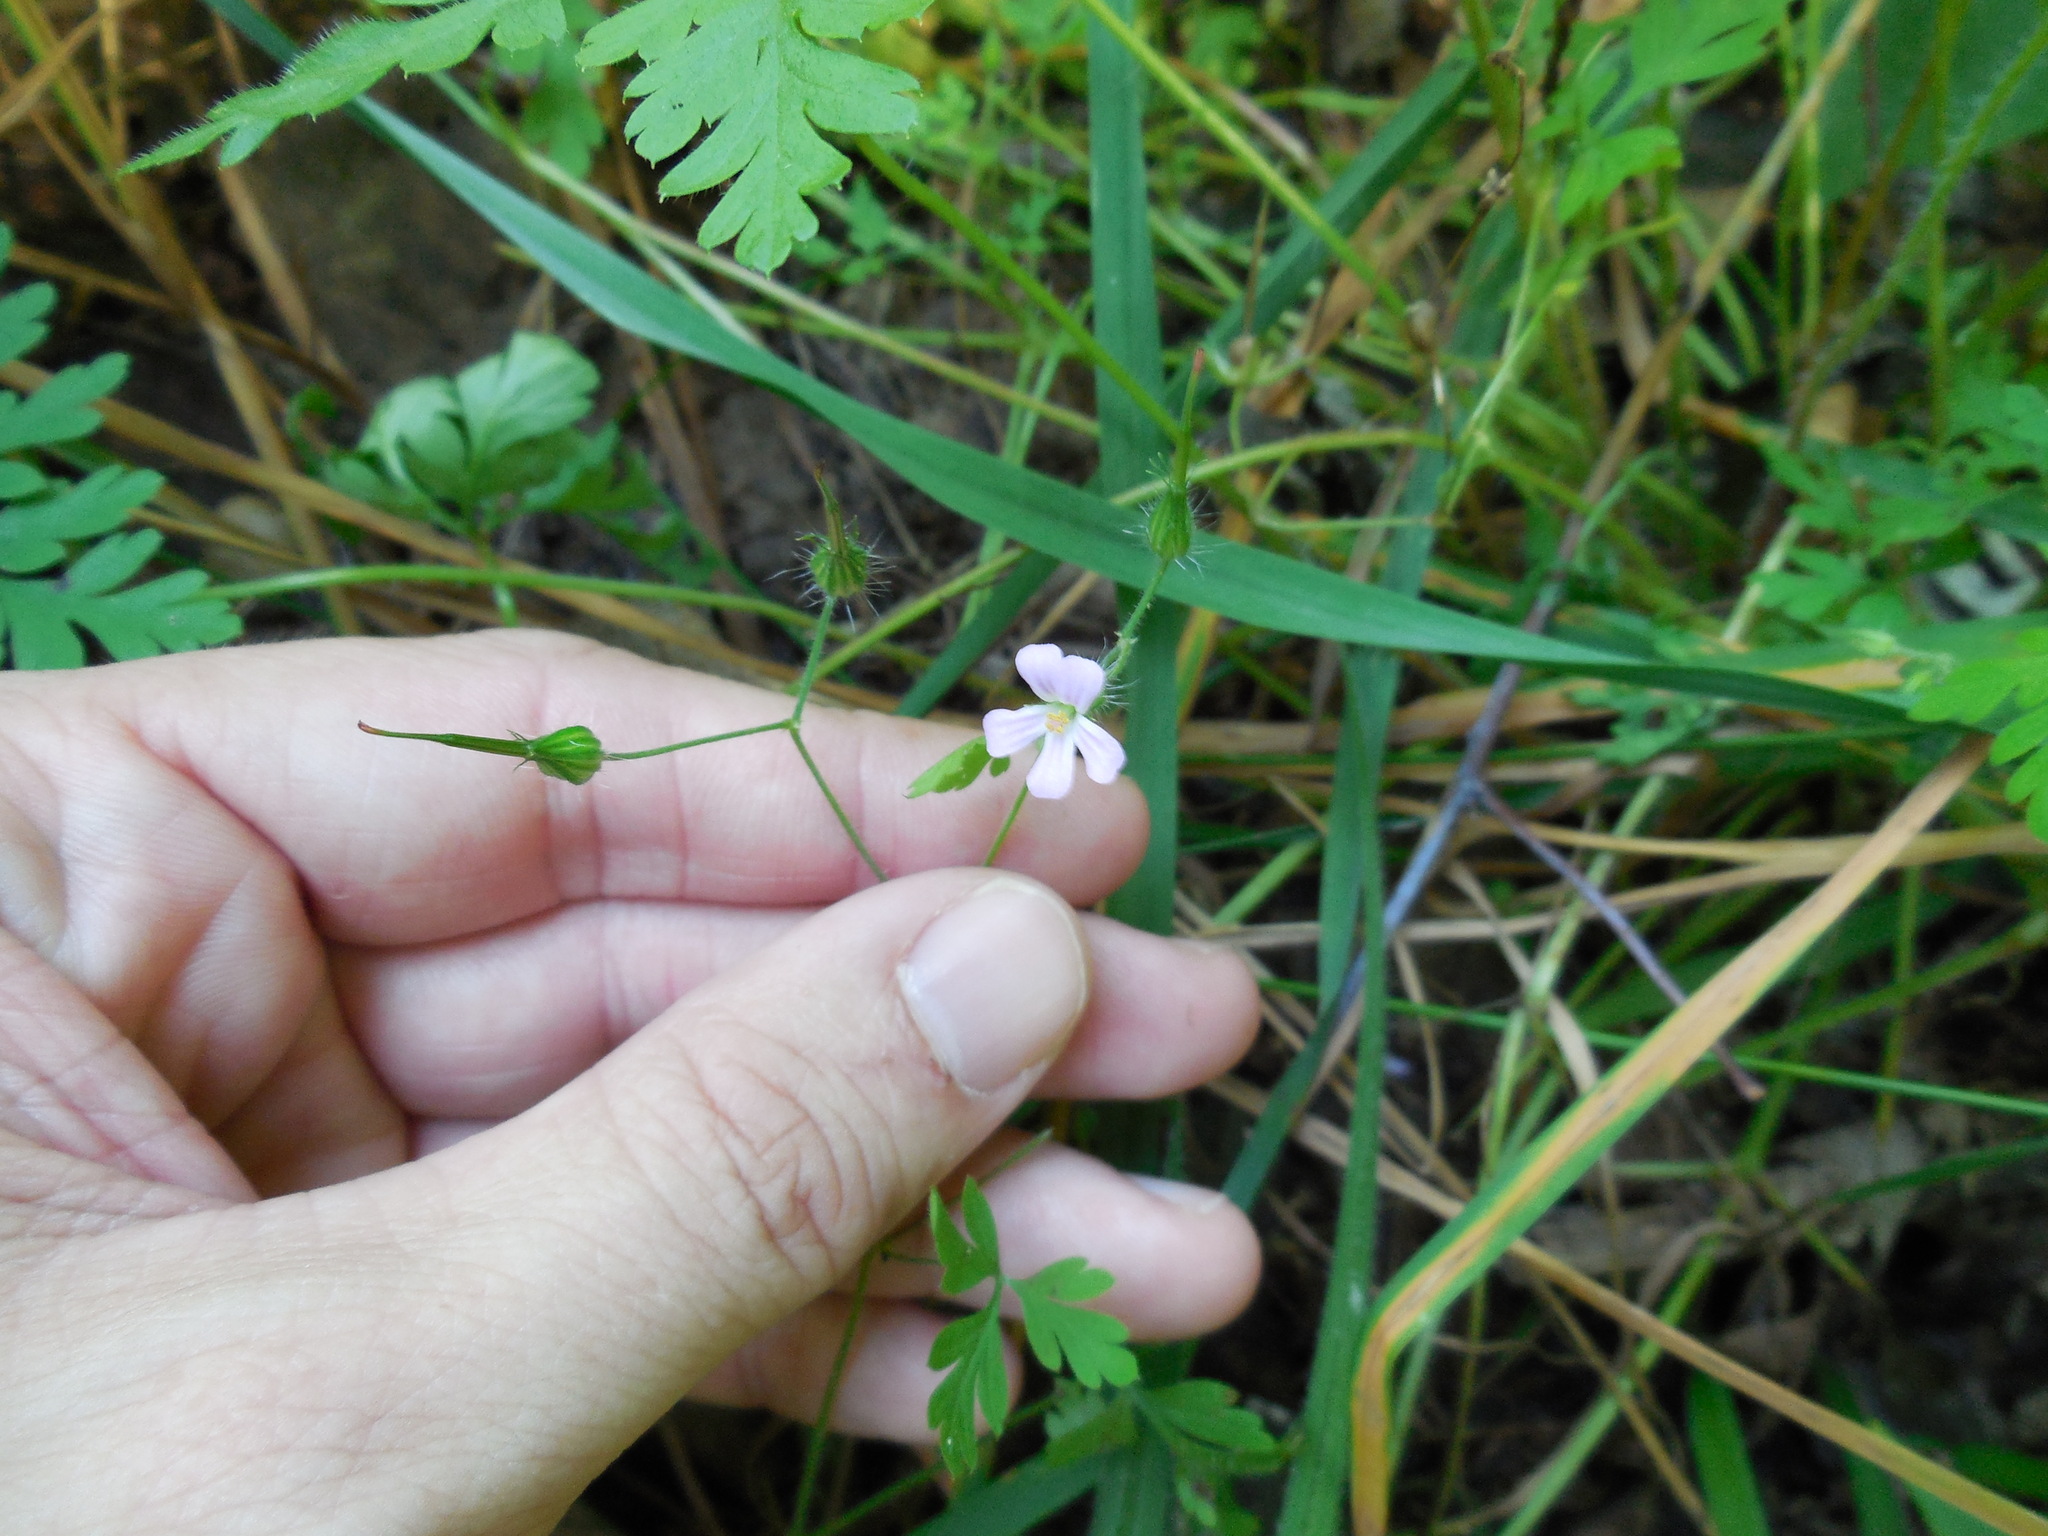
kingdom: Plantae
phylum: Tracheophyta
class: Magnoliopsida
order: Geraniales
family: Geraniaceae
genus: Geranium
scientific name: Geranium robertianum
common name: Herb-robert
